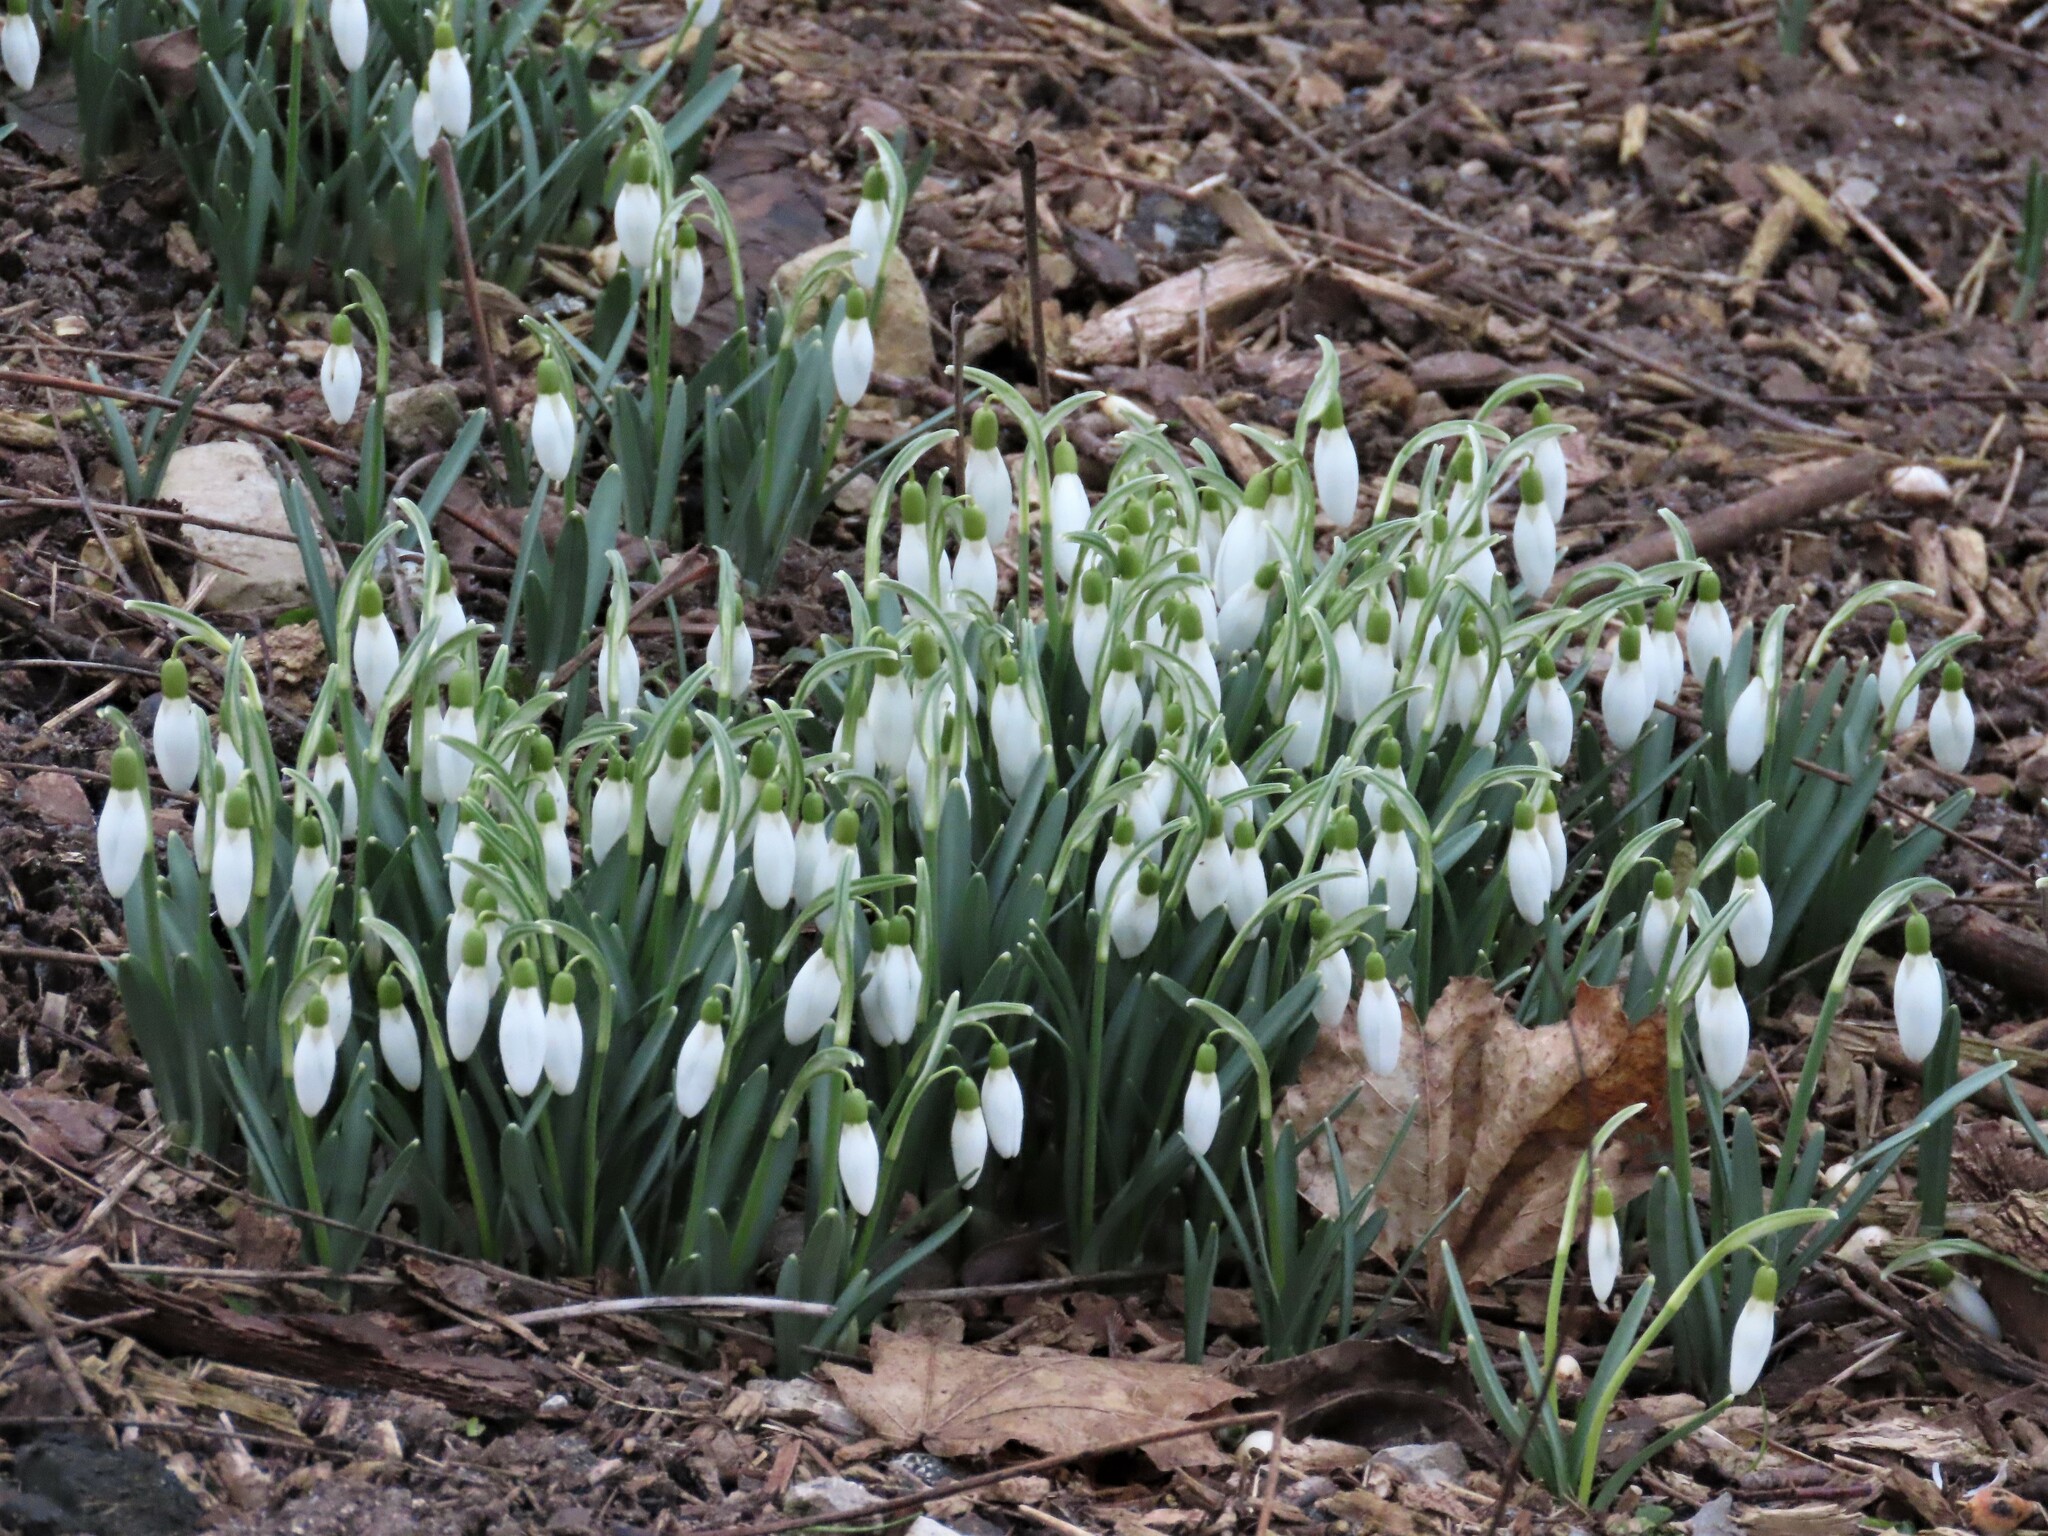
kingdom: Plantae
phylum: Tracheophyta
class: Liliopsida
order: Asparagales
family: Amaryllidaceae
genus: Galanthus
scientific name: Galanthus nivalis
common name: Snowdrop
